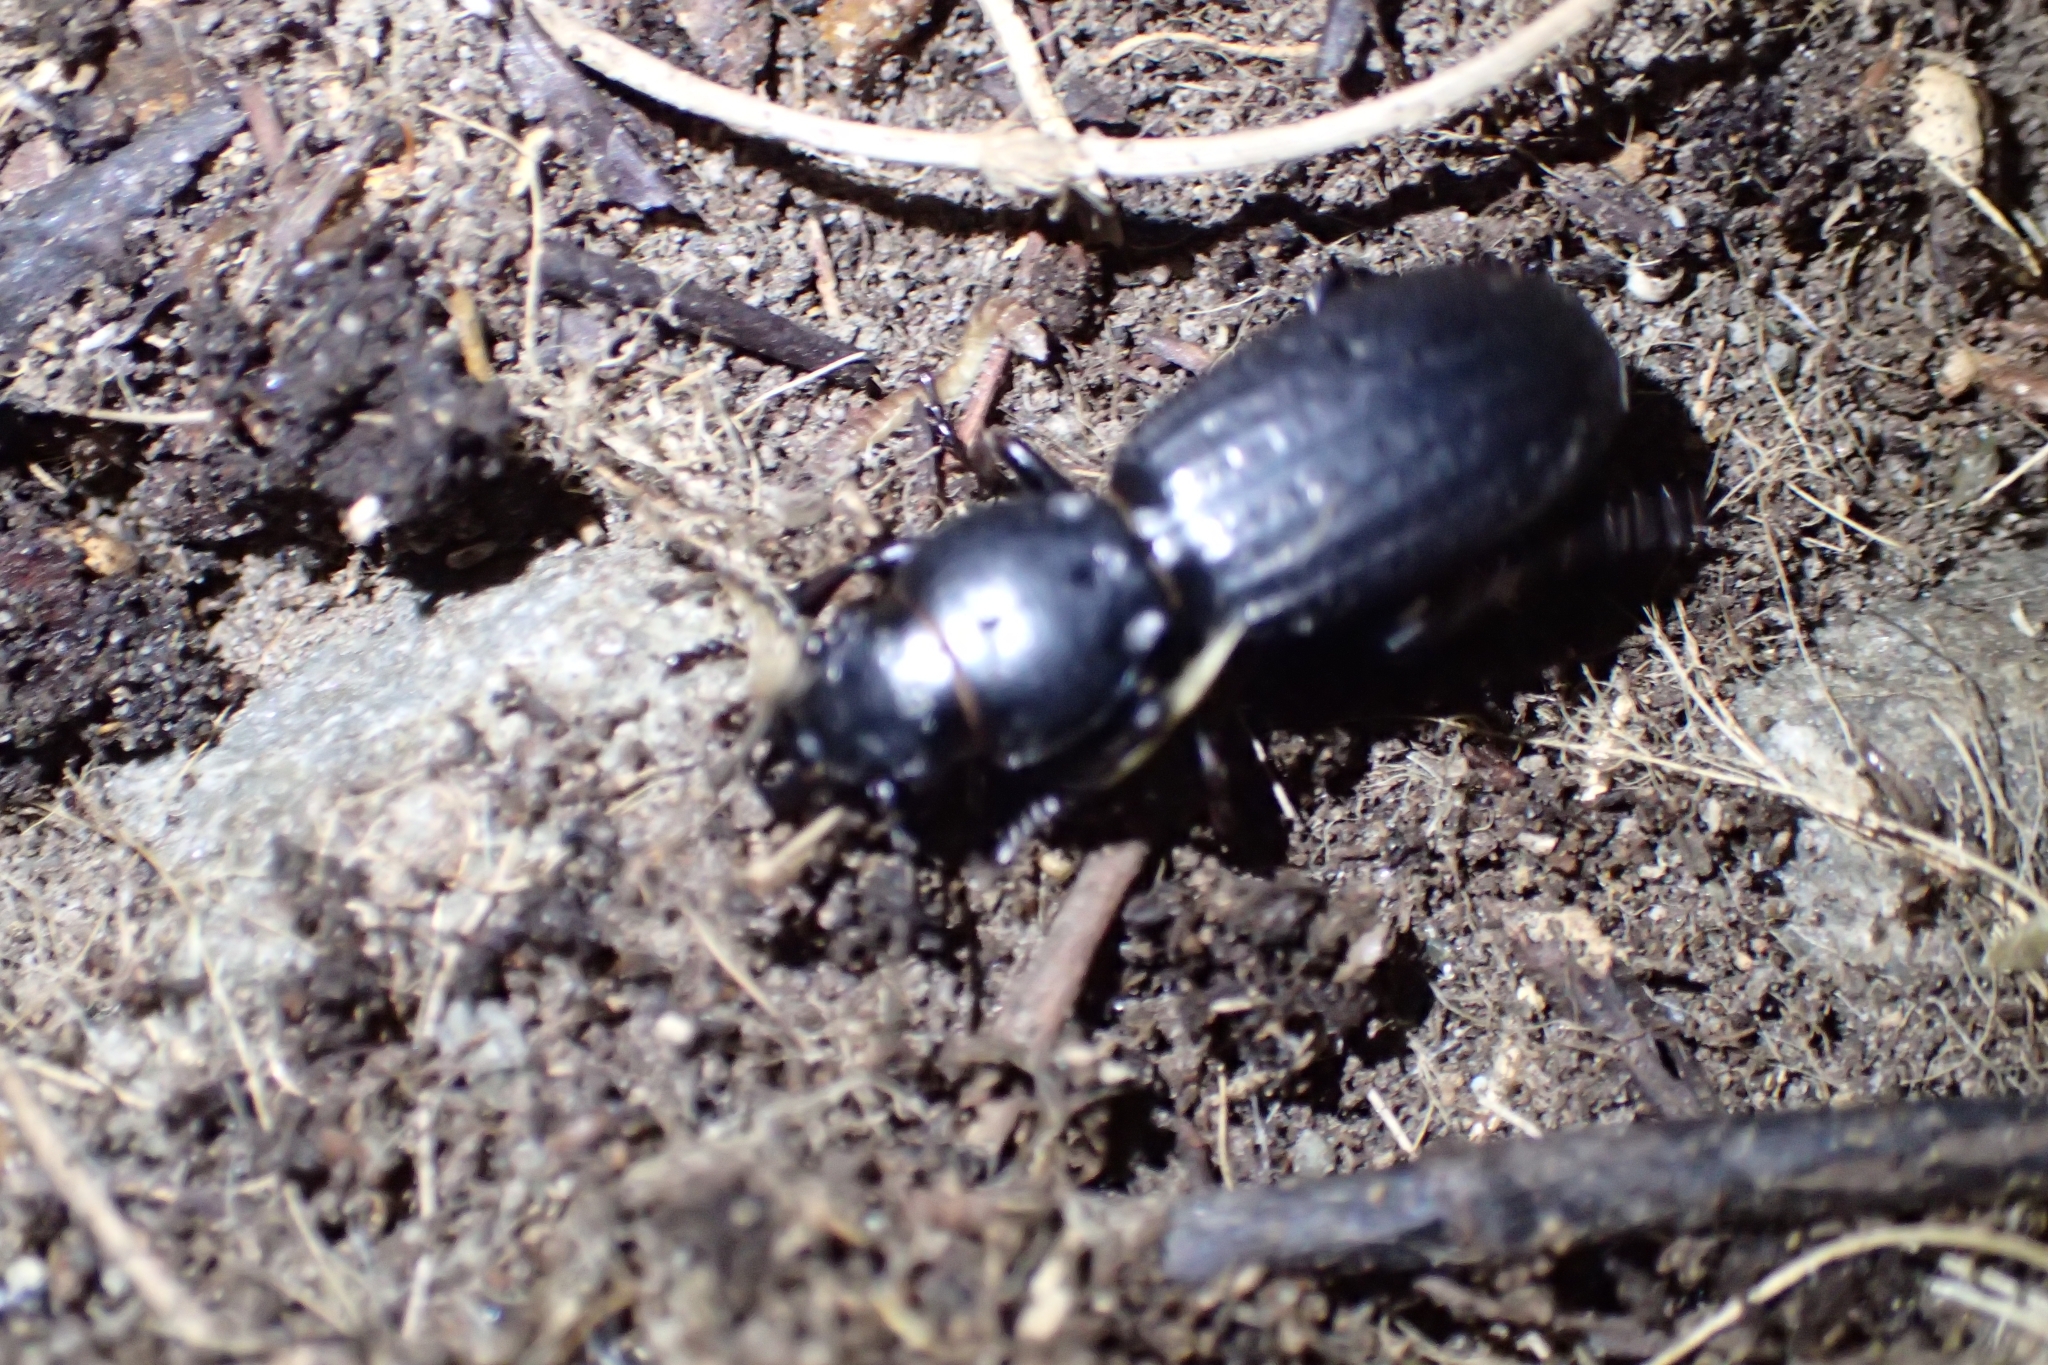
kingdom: Animalia
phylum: Arthropoda
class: Insecta
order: Coleoptera
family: Carabidae
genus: Mecodema
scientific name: Mecodema rectolineatum
